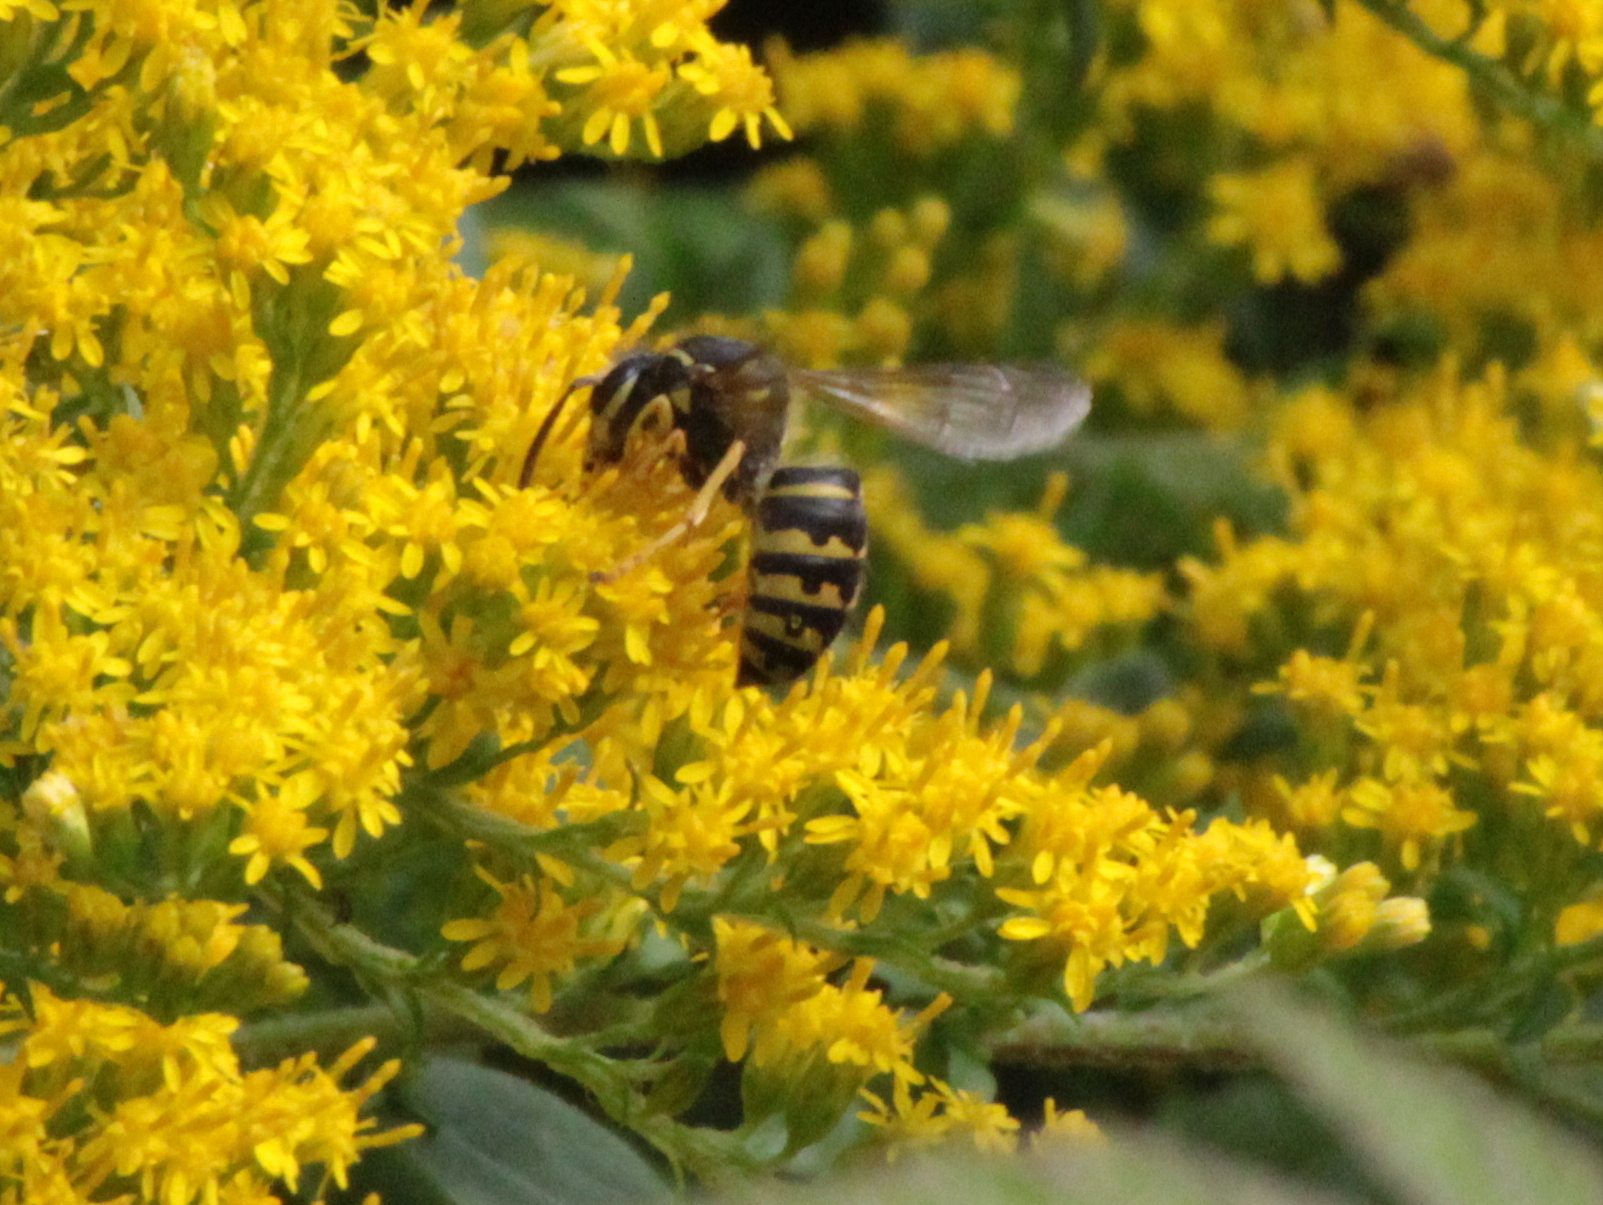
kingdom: Animalia
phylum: Arthropoda
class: Insecta
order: Hymenoptera
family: Vespidae
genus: Dolichovespula
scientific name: Dolichovespula arenaria
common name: Aerial yellowjacket
